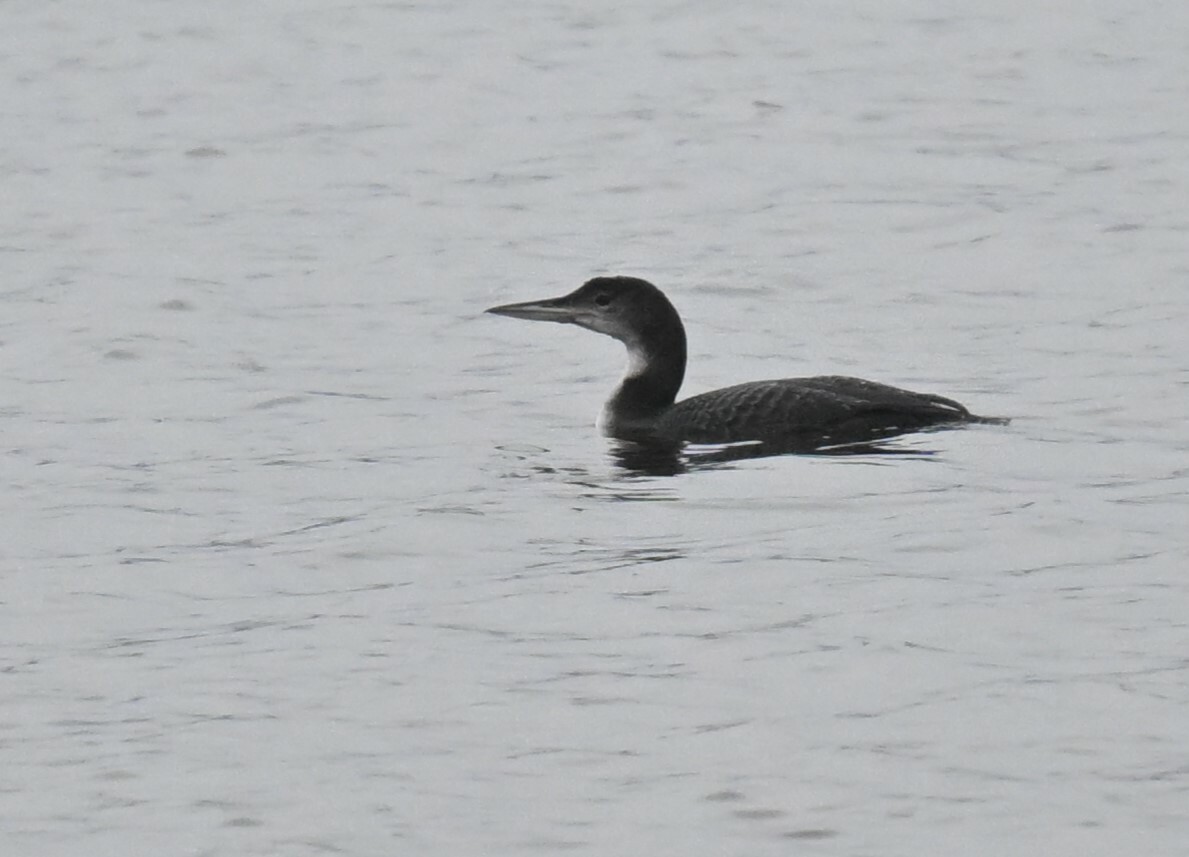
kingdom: Animalia
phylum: Chordata
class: Aves
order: Gaviiformes
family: Gaviidae
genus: Gavia
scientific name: Gavia immer
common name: Common loon
